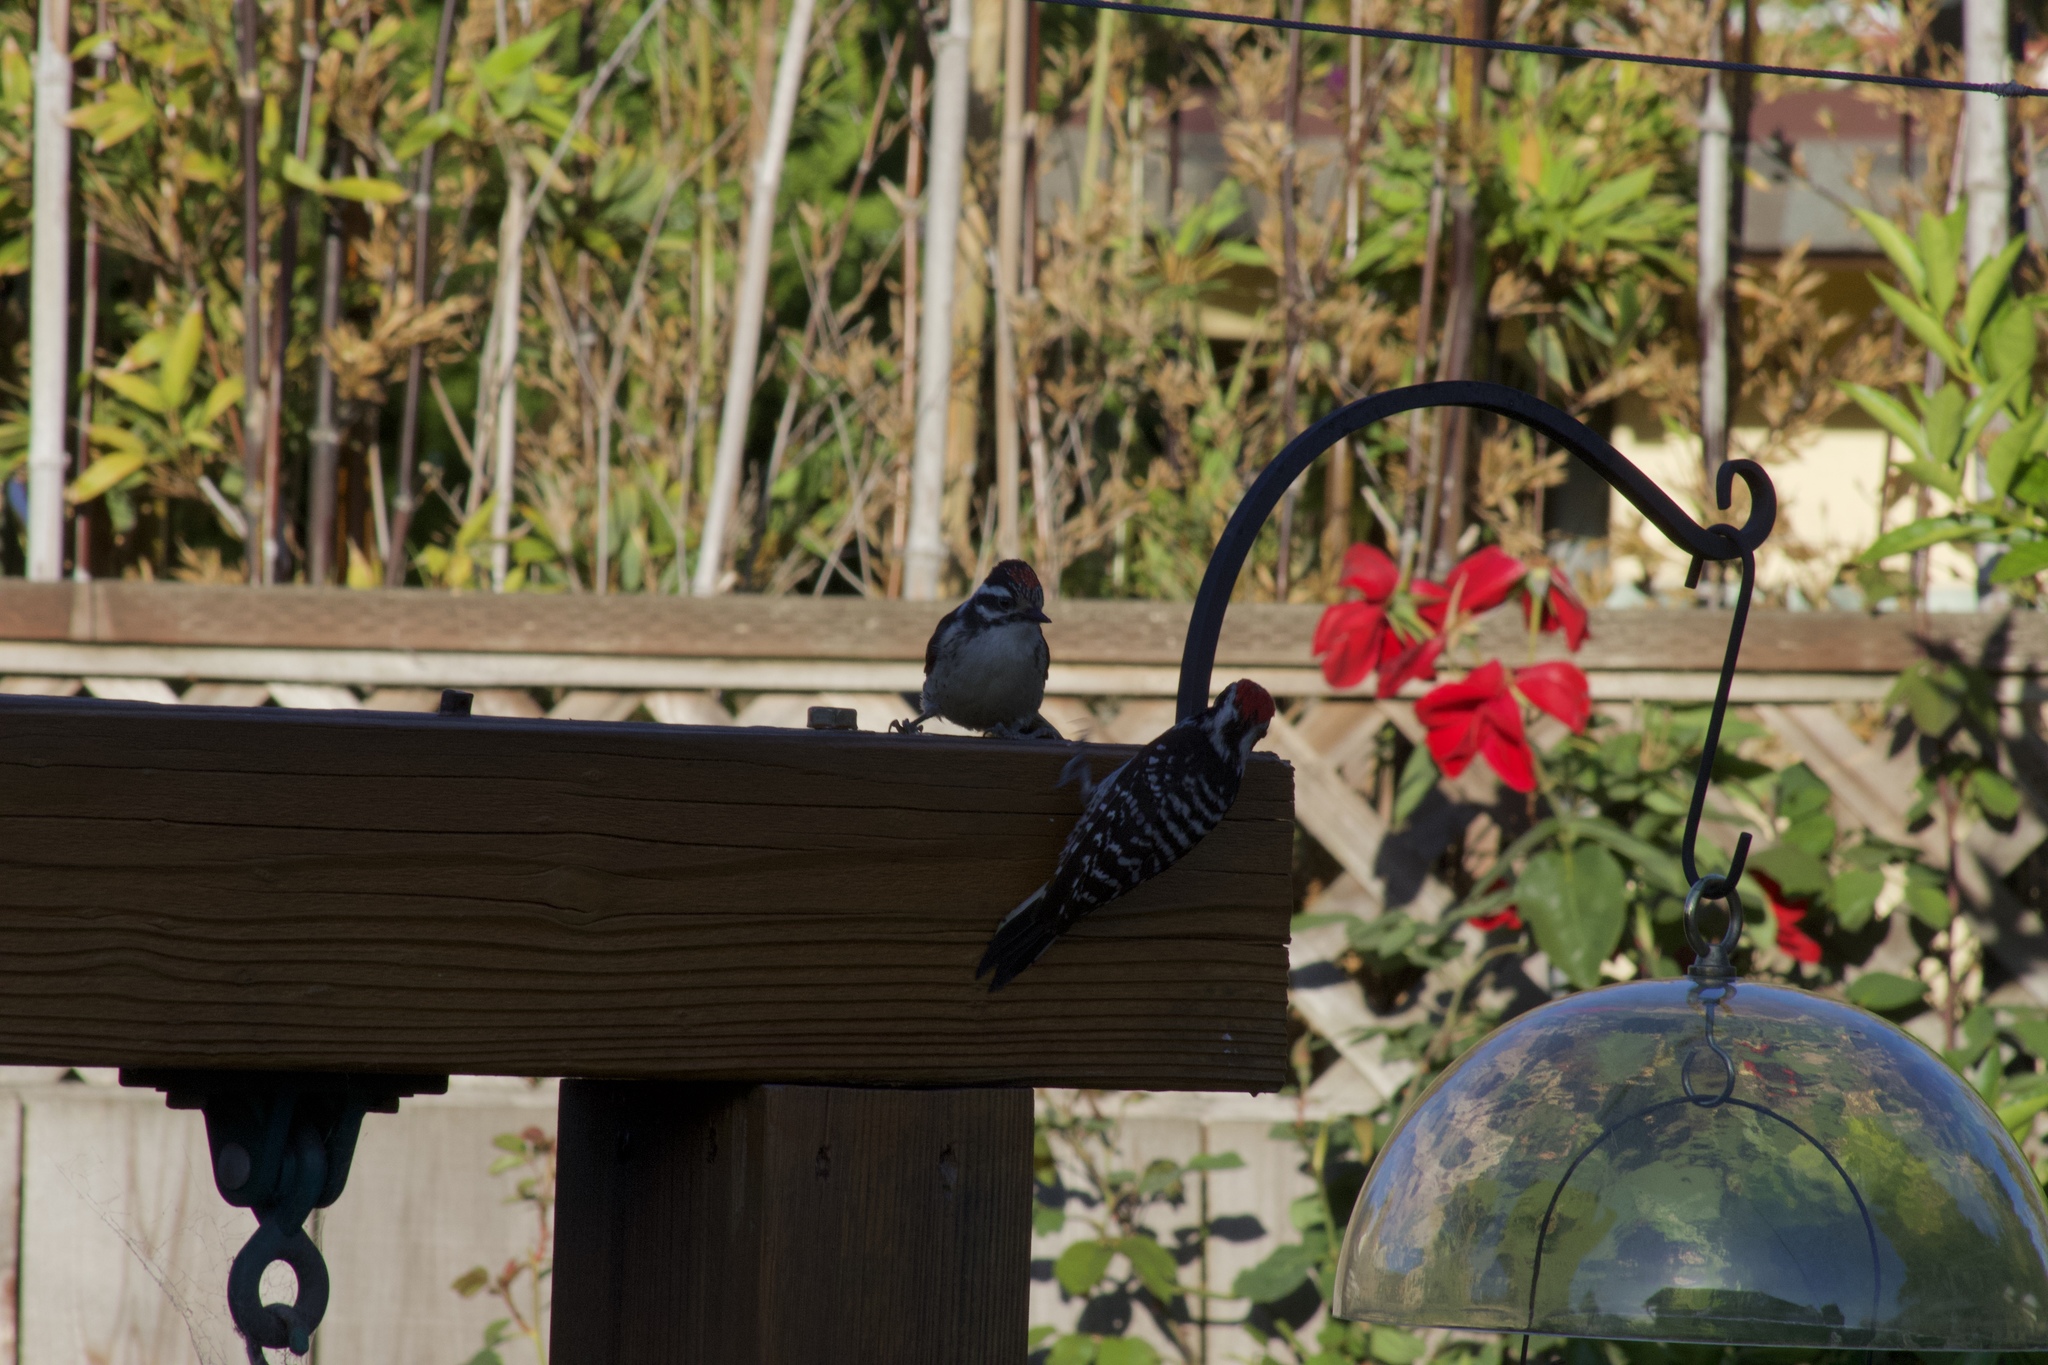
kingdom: Animalia
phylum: Chordata
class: Aves
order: Piciformes
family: Picidae
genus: Dryobates
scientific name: Dryobates nuttallii
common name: Nuttall's woodpecker
